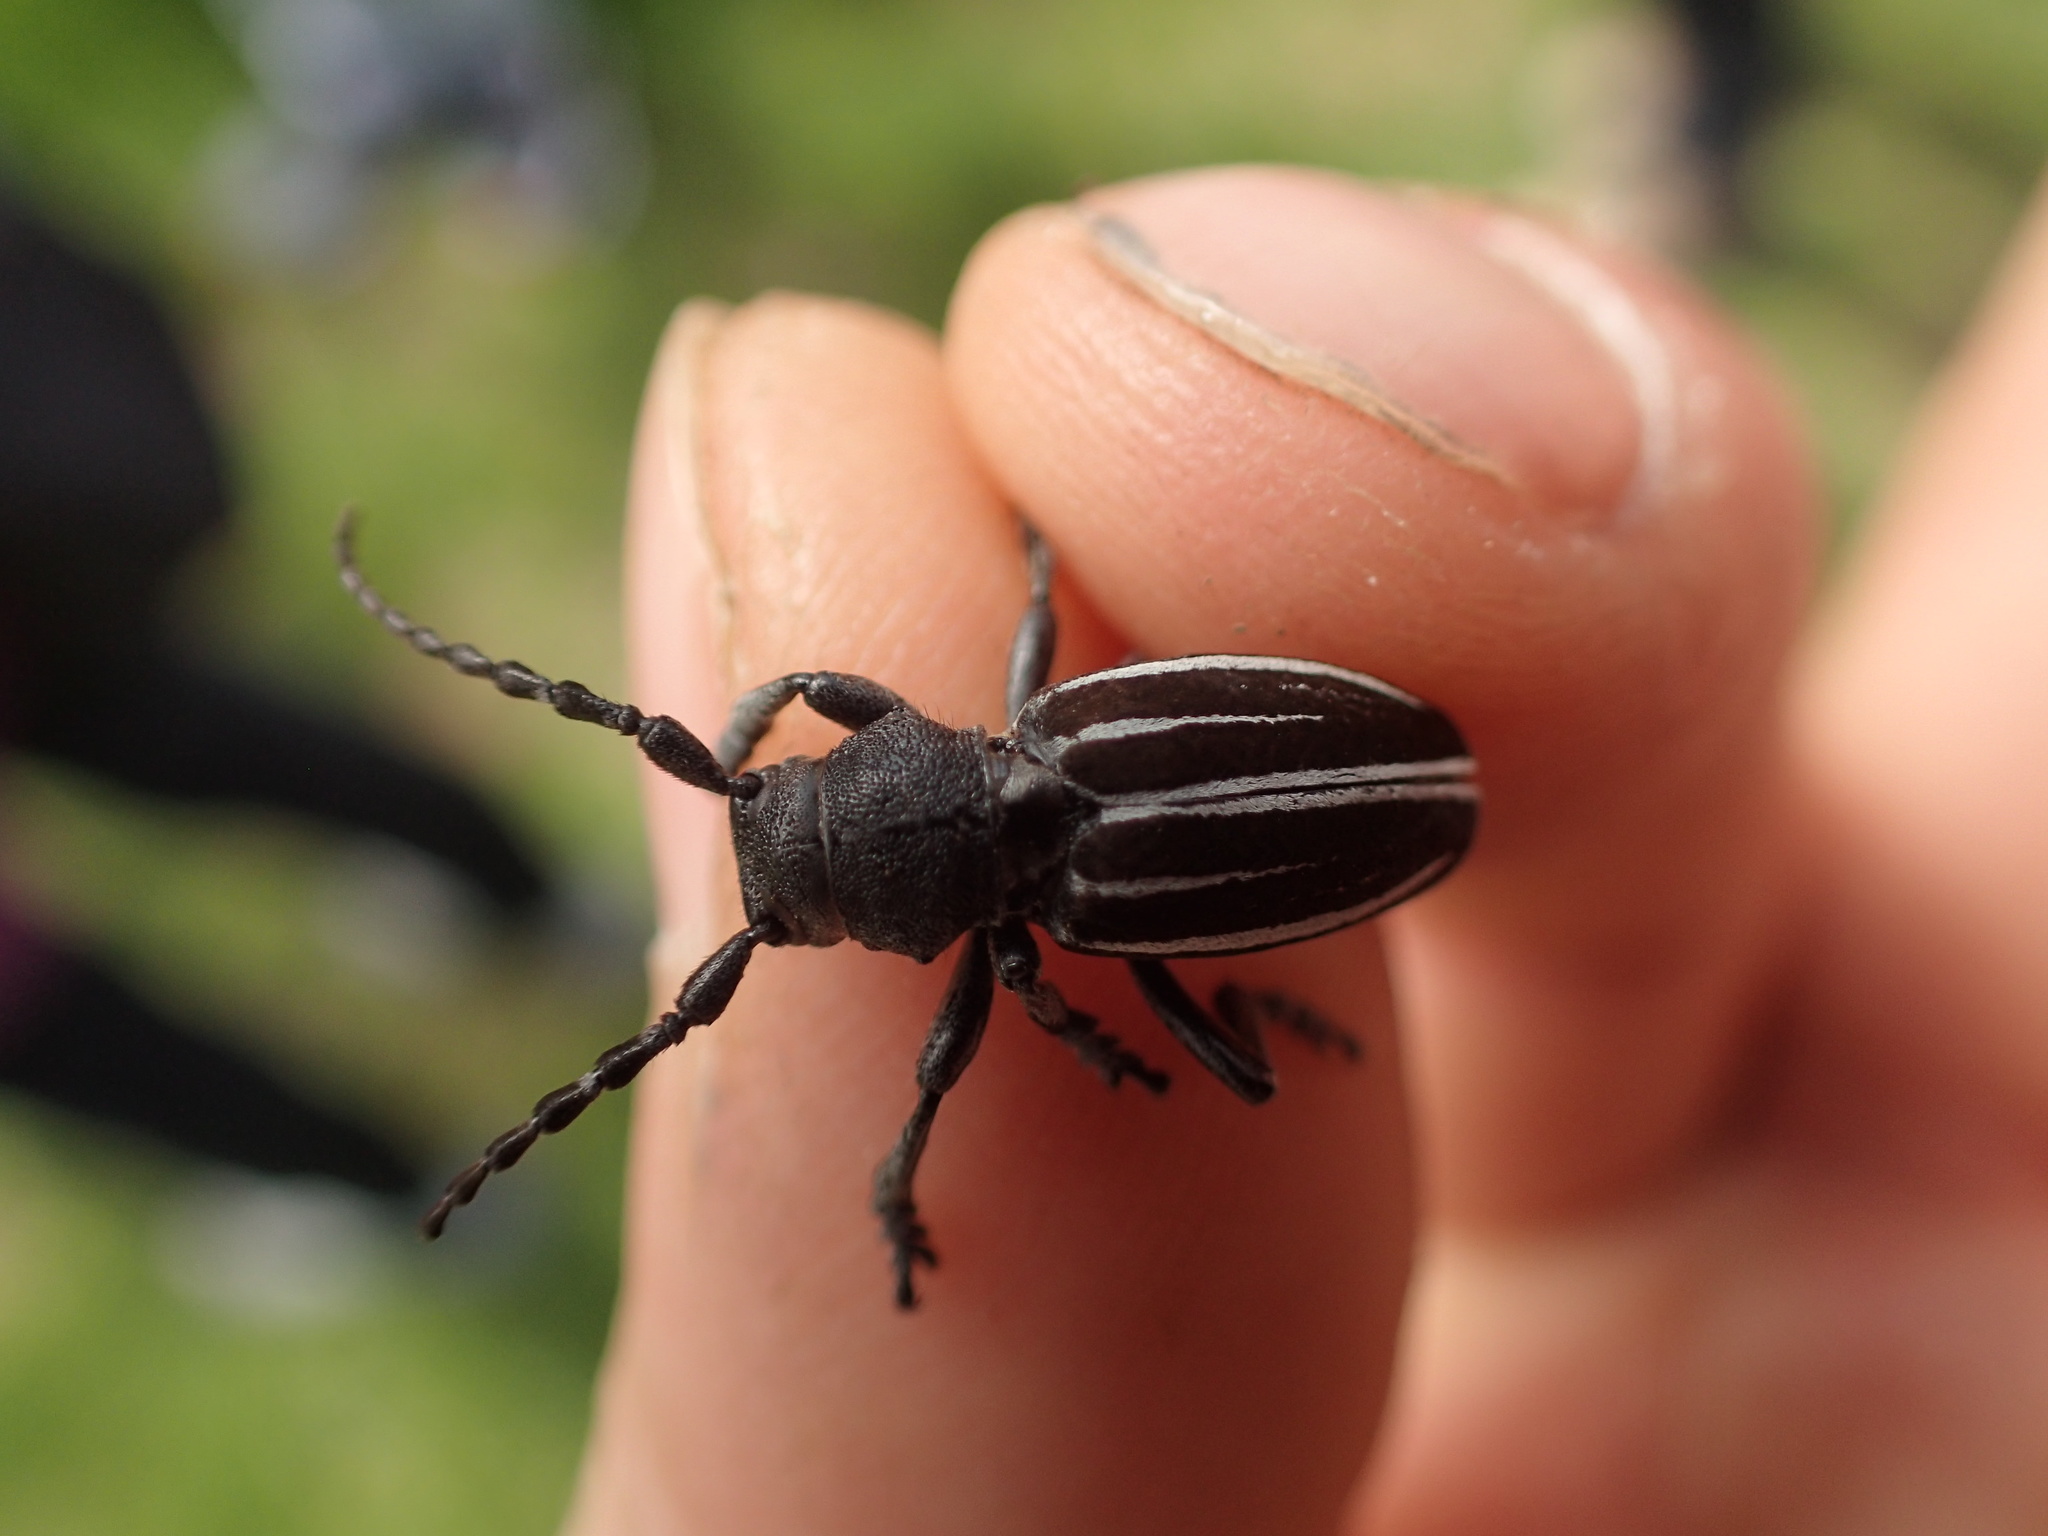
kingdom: Animalia
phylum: Arthropoda
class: Insecta
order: Coleoptera
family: Cerambycidae
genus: Iberodorcadion
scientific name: Iberodorcadion fuliginator
